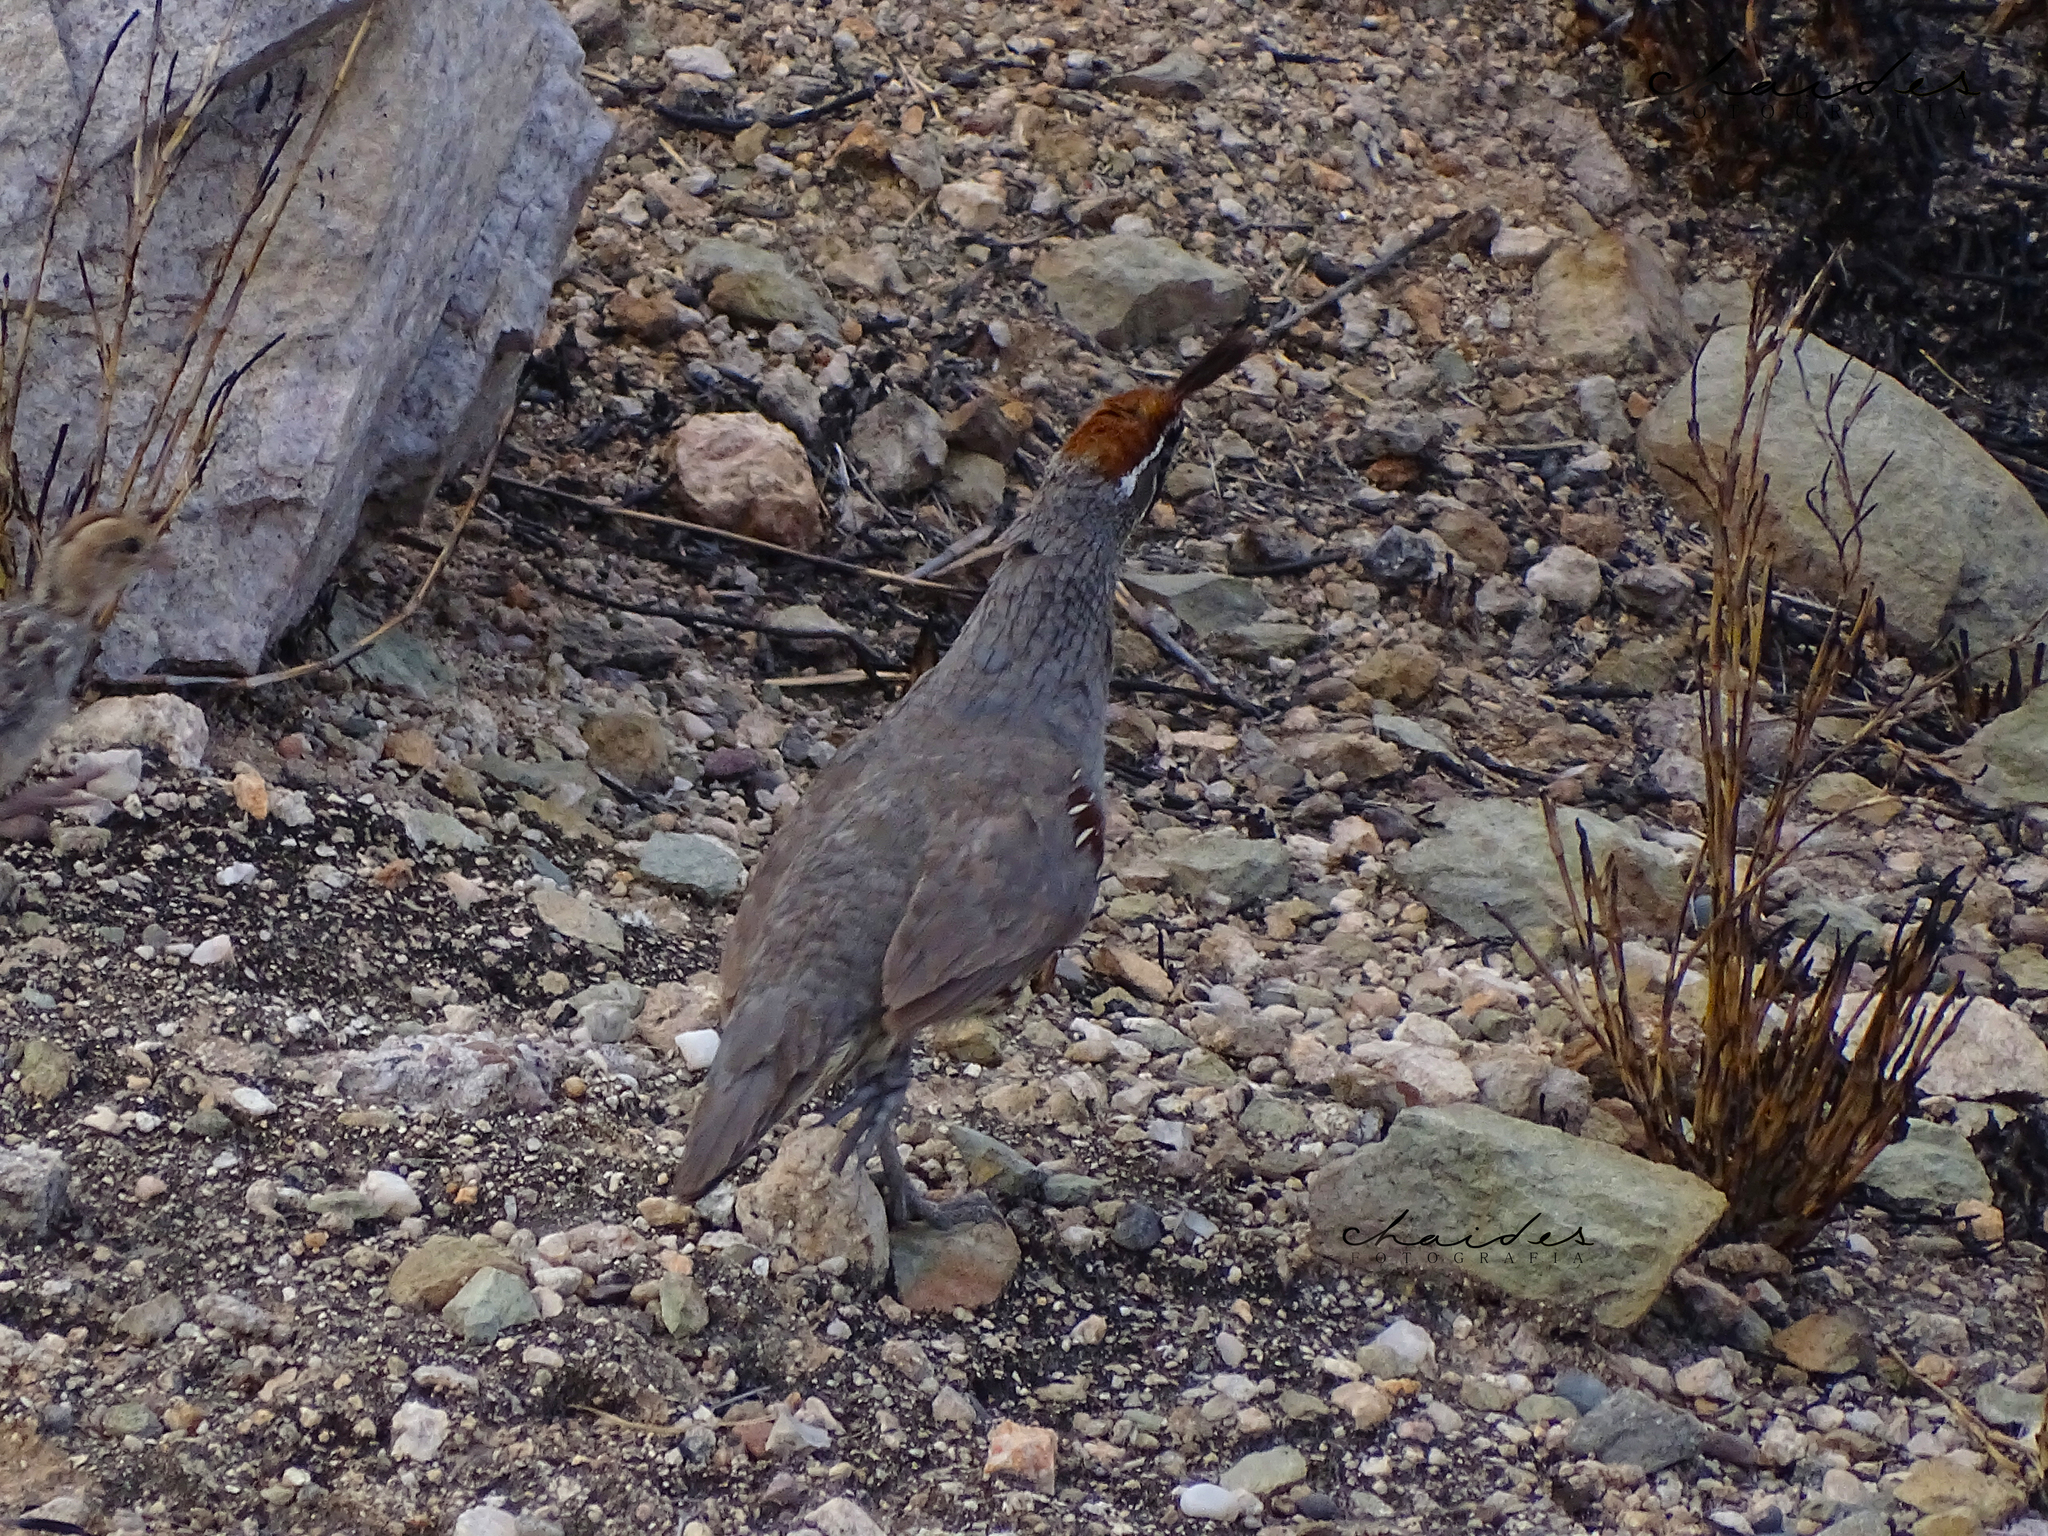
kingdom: Animalia
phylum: Chordata
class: Aves
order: Galliformes
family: Odontophoridae
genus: Callipepla
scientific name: Callipepla gambelii
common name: Gambel's quail
